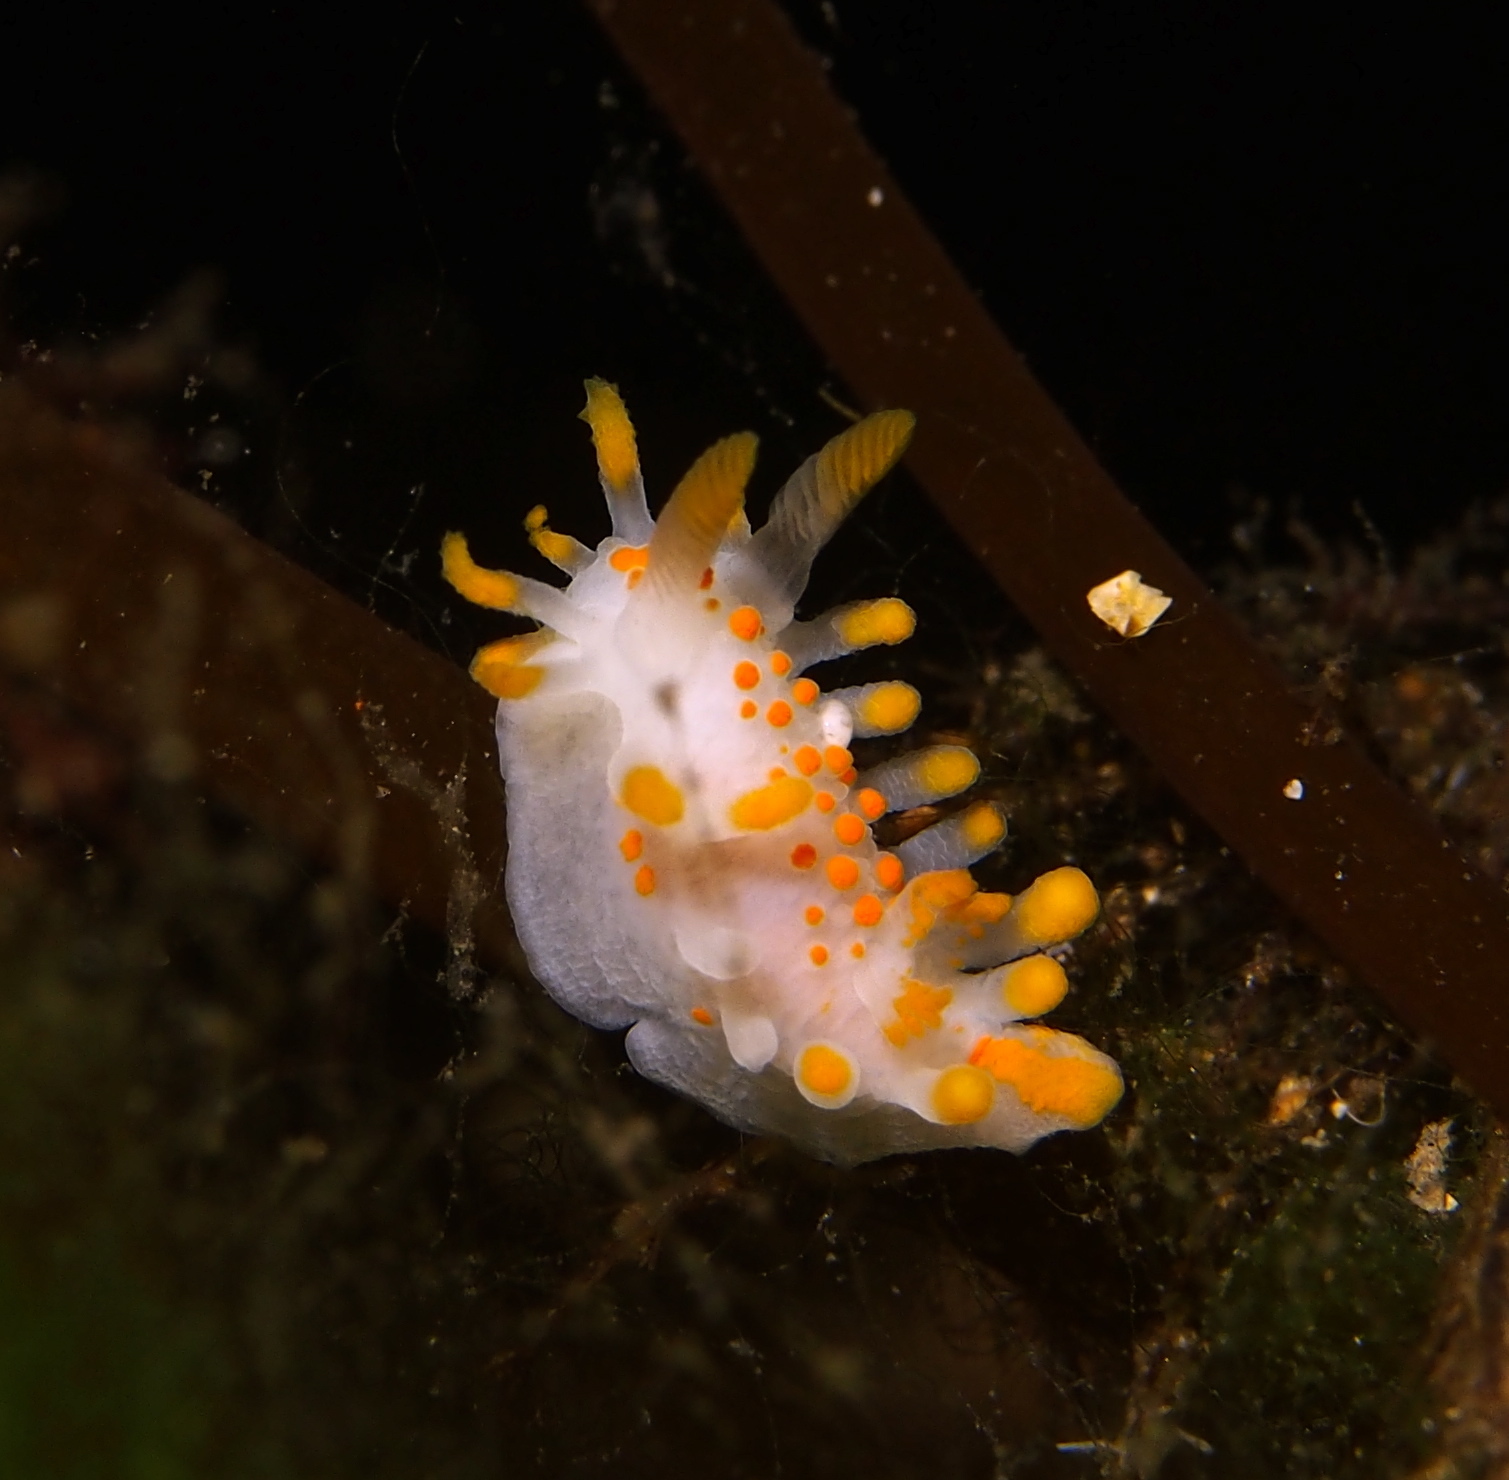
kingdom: Animalia
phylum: Mollusca
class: Gastropoda
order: Nudibranchia
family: Polyceridae
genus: Limacia
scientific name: Limacia clavigera
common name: Orange-clubbed sea slug
